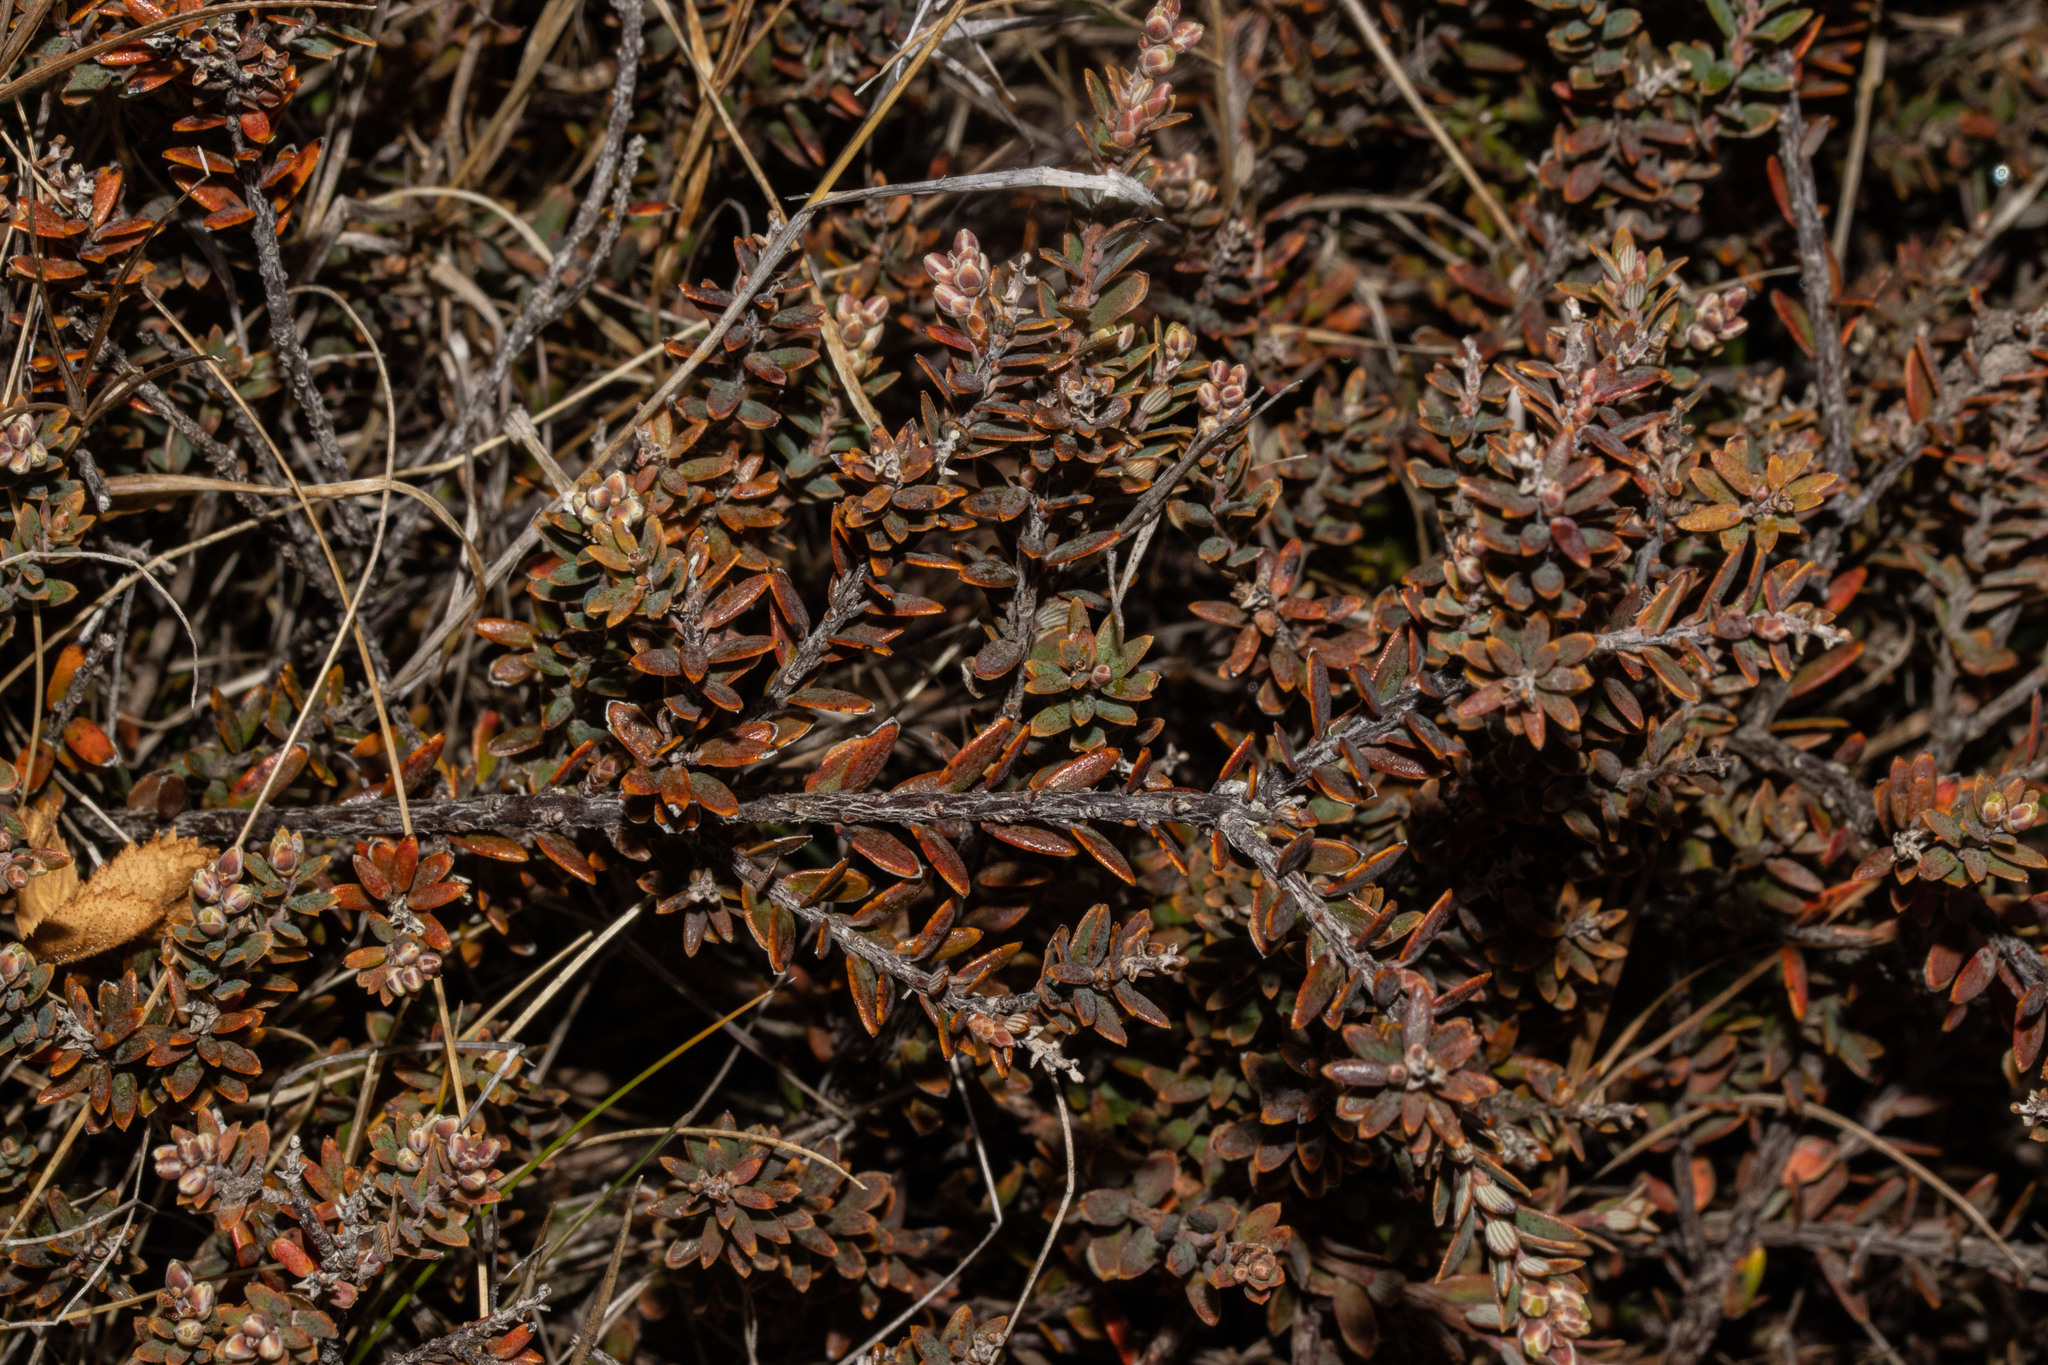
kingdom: Plantae
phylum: Tracheophyta
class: Magnoliopsida
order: Ericales
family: Ericaceae
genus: Acrothamnus
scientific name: Acrothamnus colensoi
